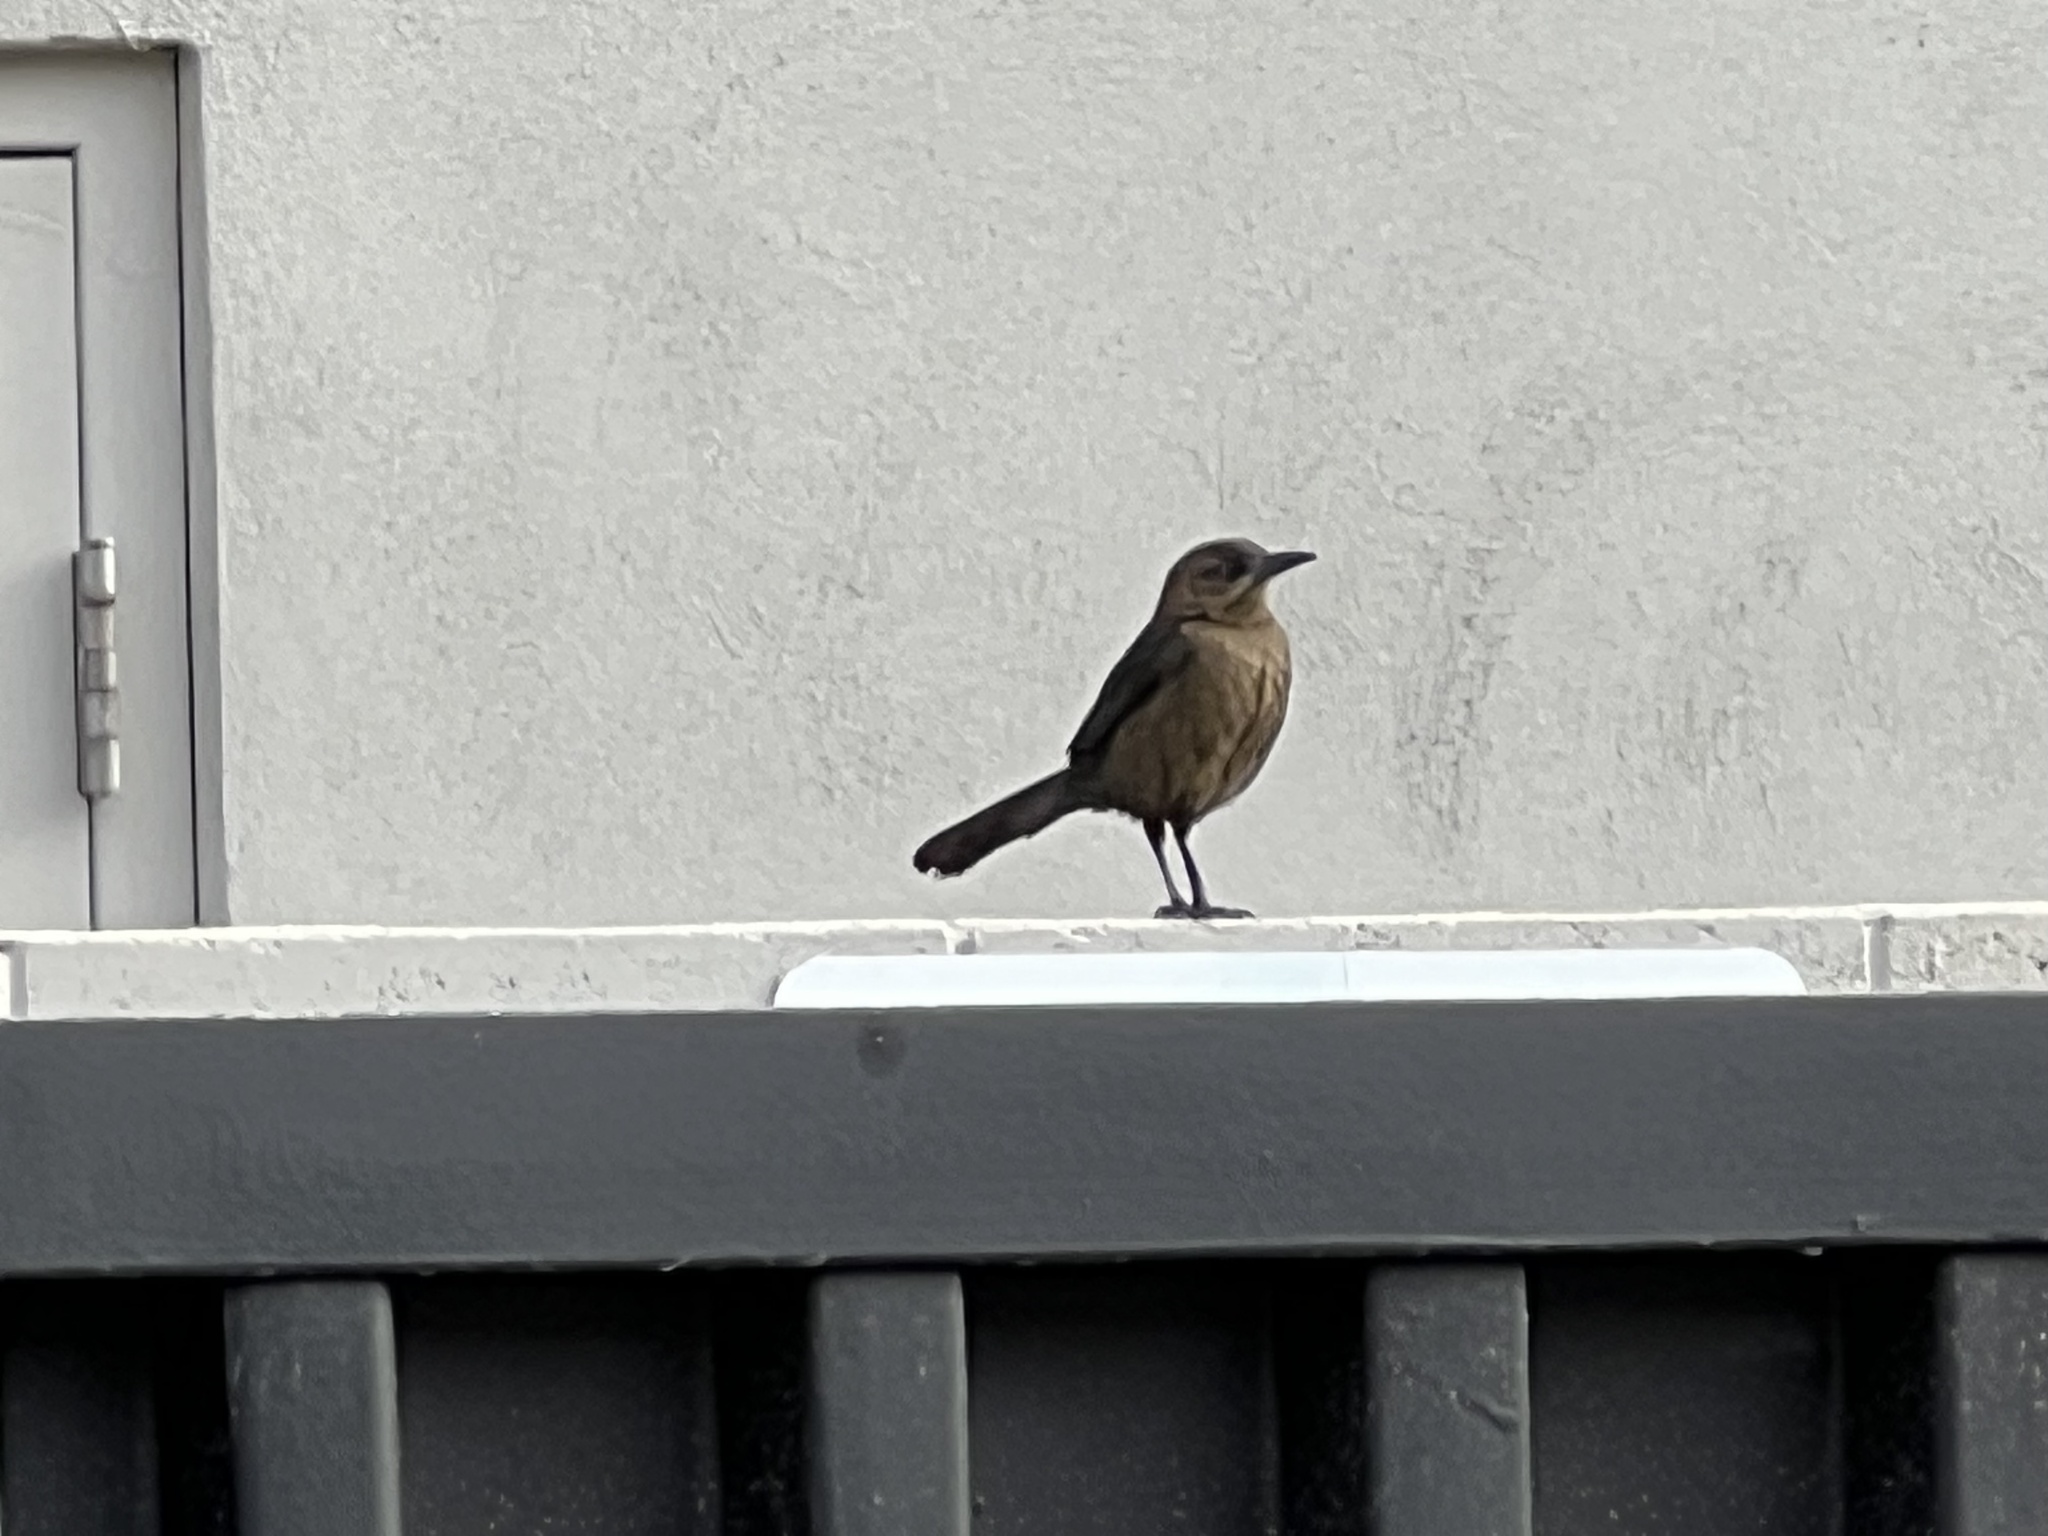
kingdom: Animalia
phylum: Chordata
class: Aves
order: Passeriformes
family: Icteridae
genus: Quiscalus
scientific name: Quiscalus mexicanus
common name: Great-tailed grackle
